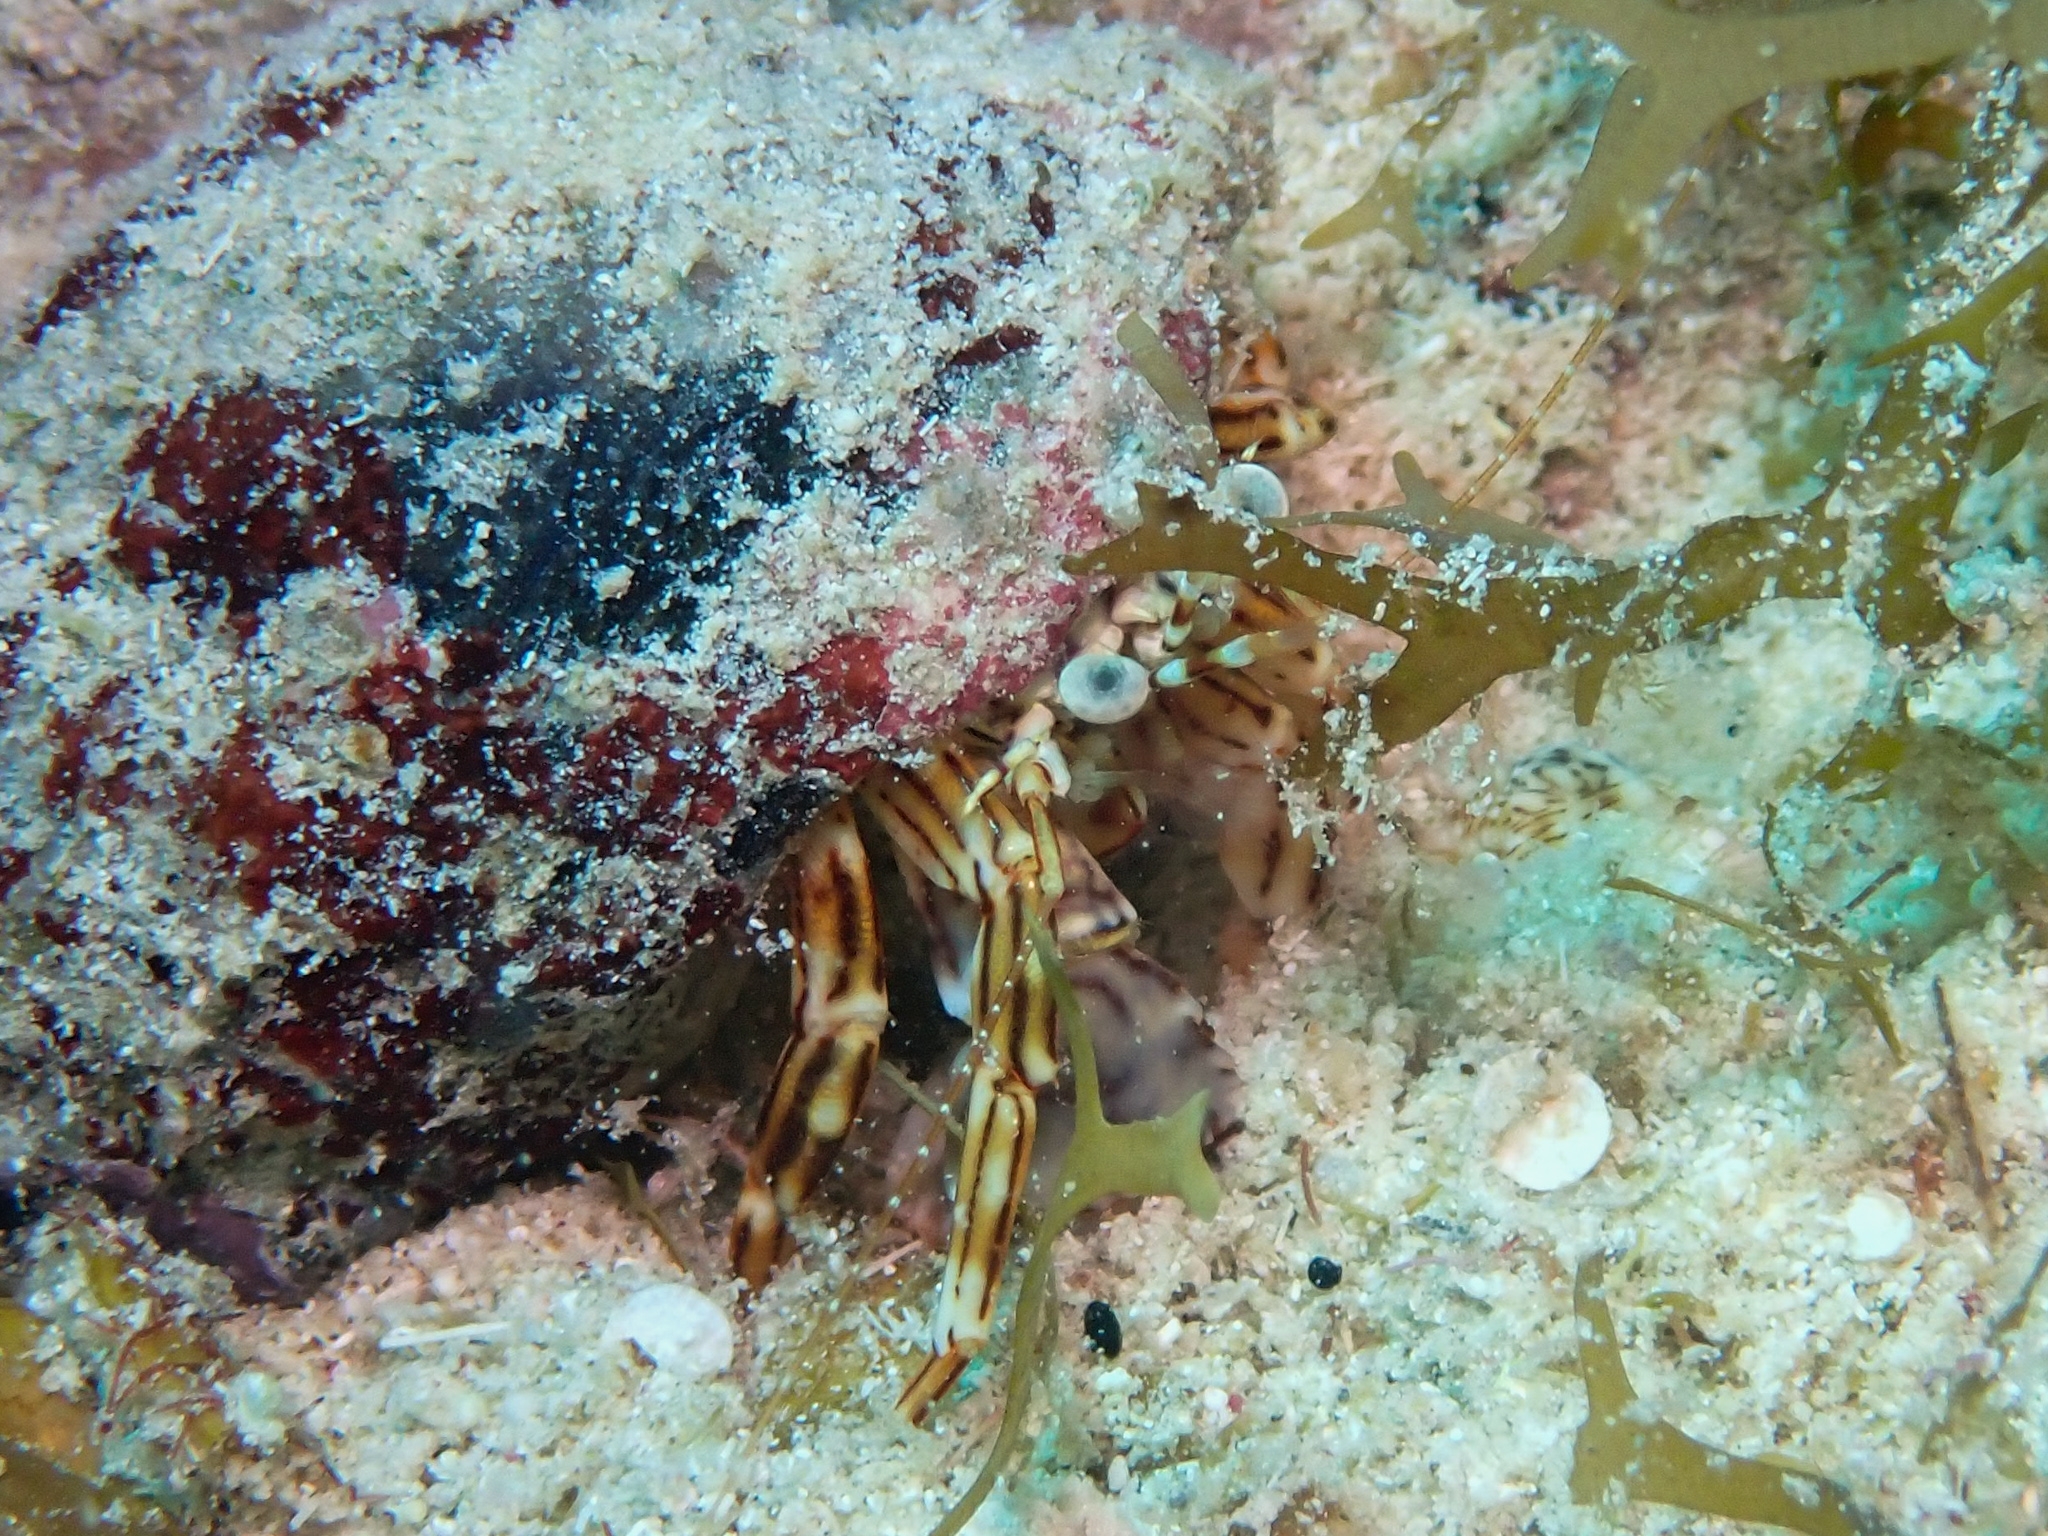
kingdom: Animalia
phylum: Arthropoda
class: Malacostraca
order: Decapoda
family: Paguridae
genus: Phimochirus
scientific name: Phimochirus holthuisi
